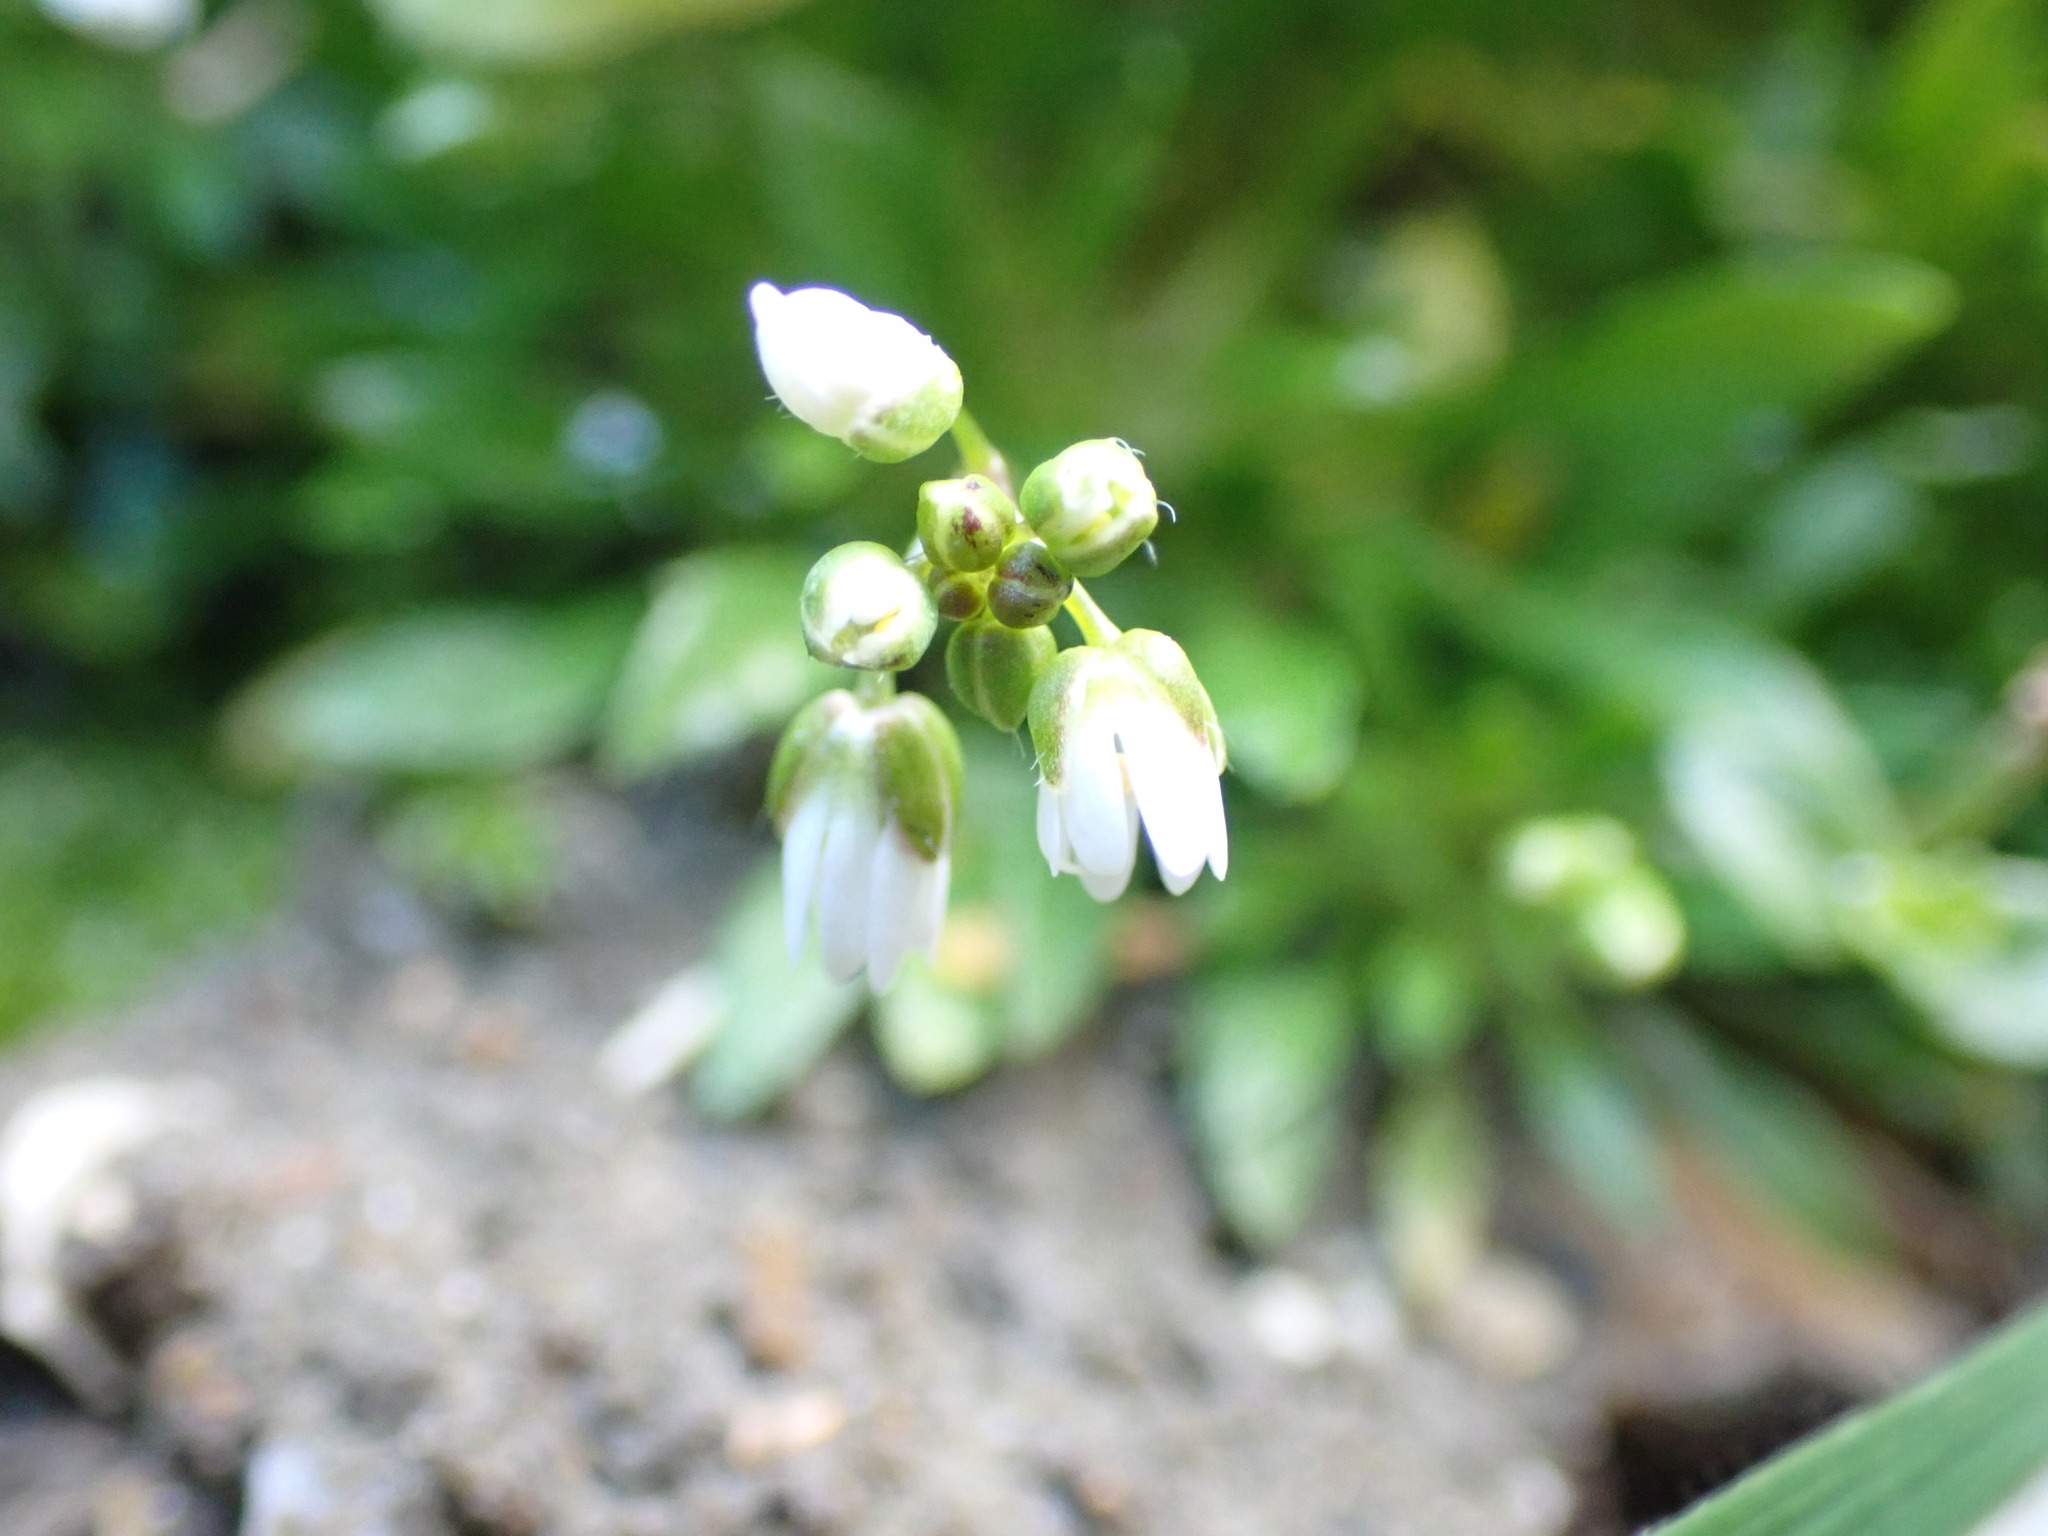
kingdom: Plantae
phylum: Tracheophyta
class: Magnoliopsida
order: Brassicales
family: Brassicaceae
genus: Draba
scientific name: Draba verna
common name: Spring draba
